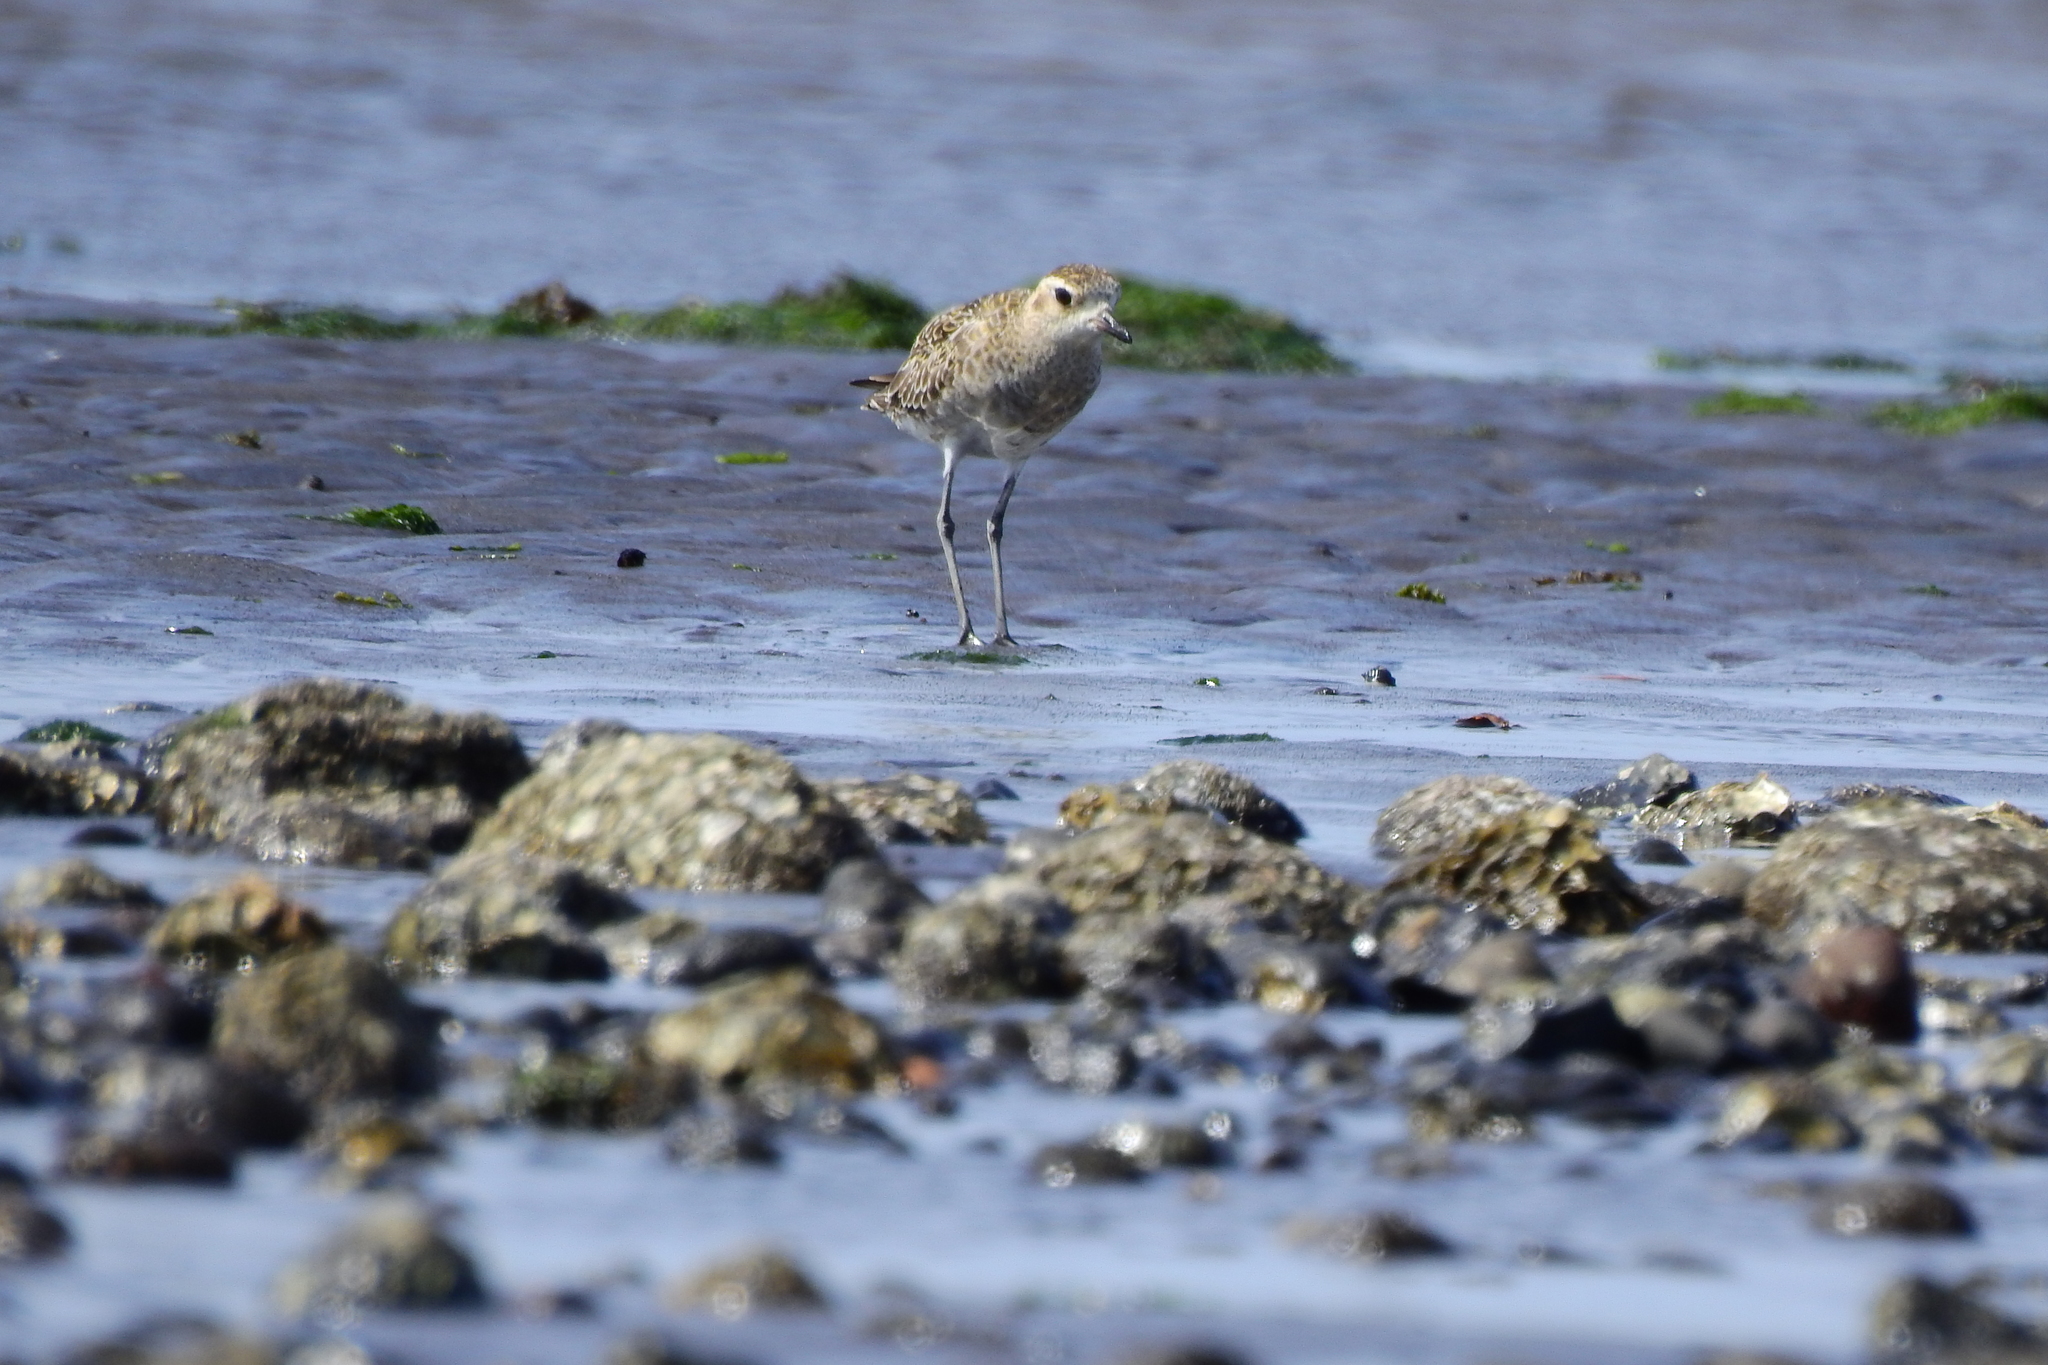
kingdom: Animalia
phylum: Chordata
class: Aves
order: Charadriiformes
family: Charadriidae
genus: Pluvialis
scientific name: Pluvialis fulva
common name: Pacific golden plover
